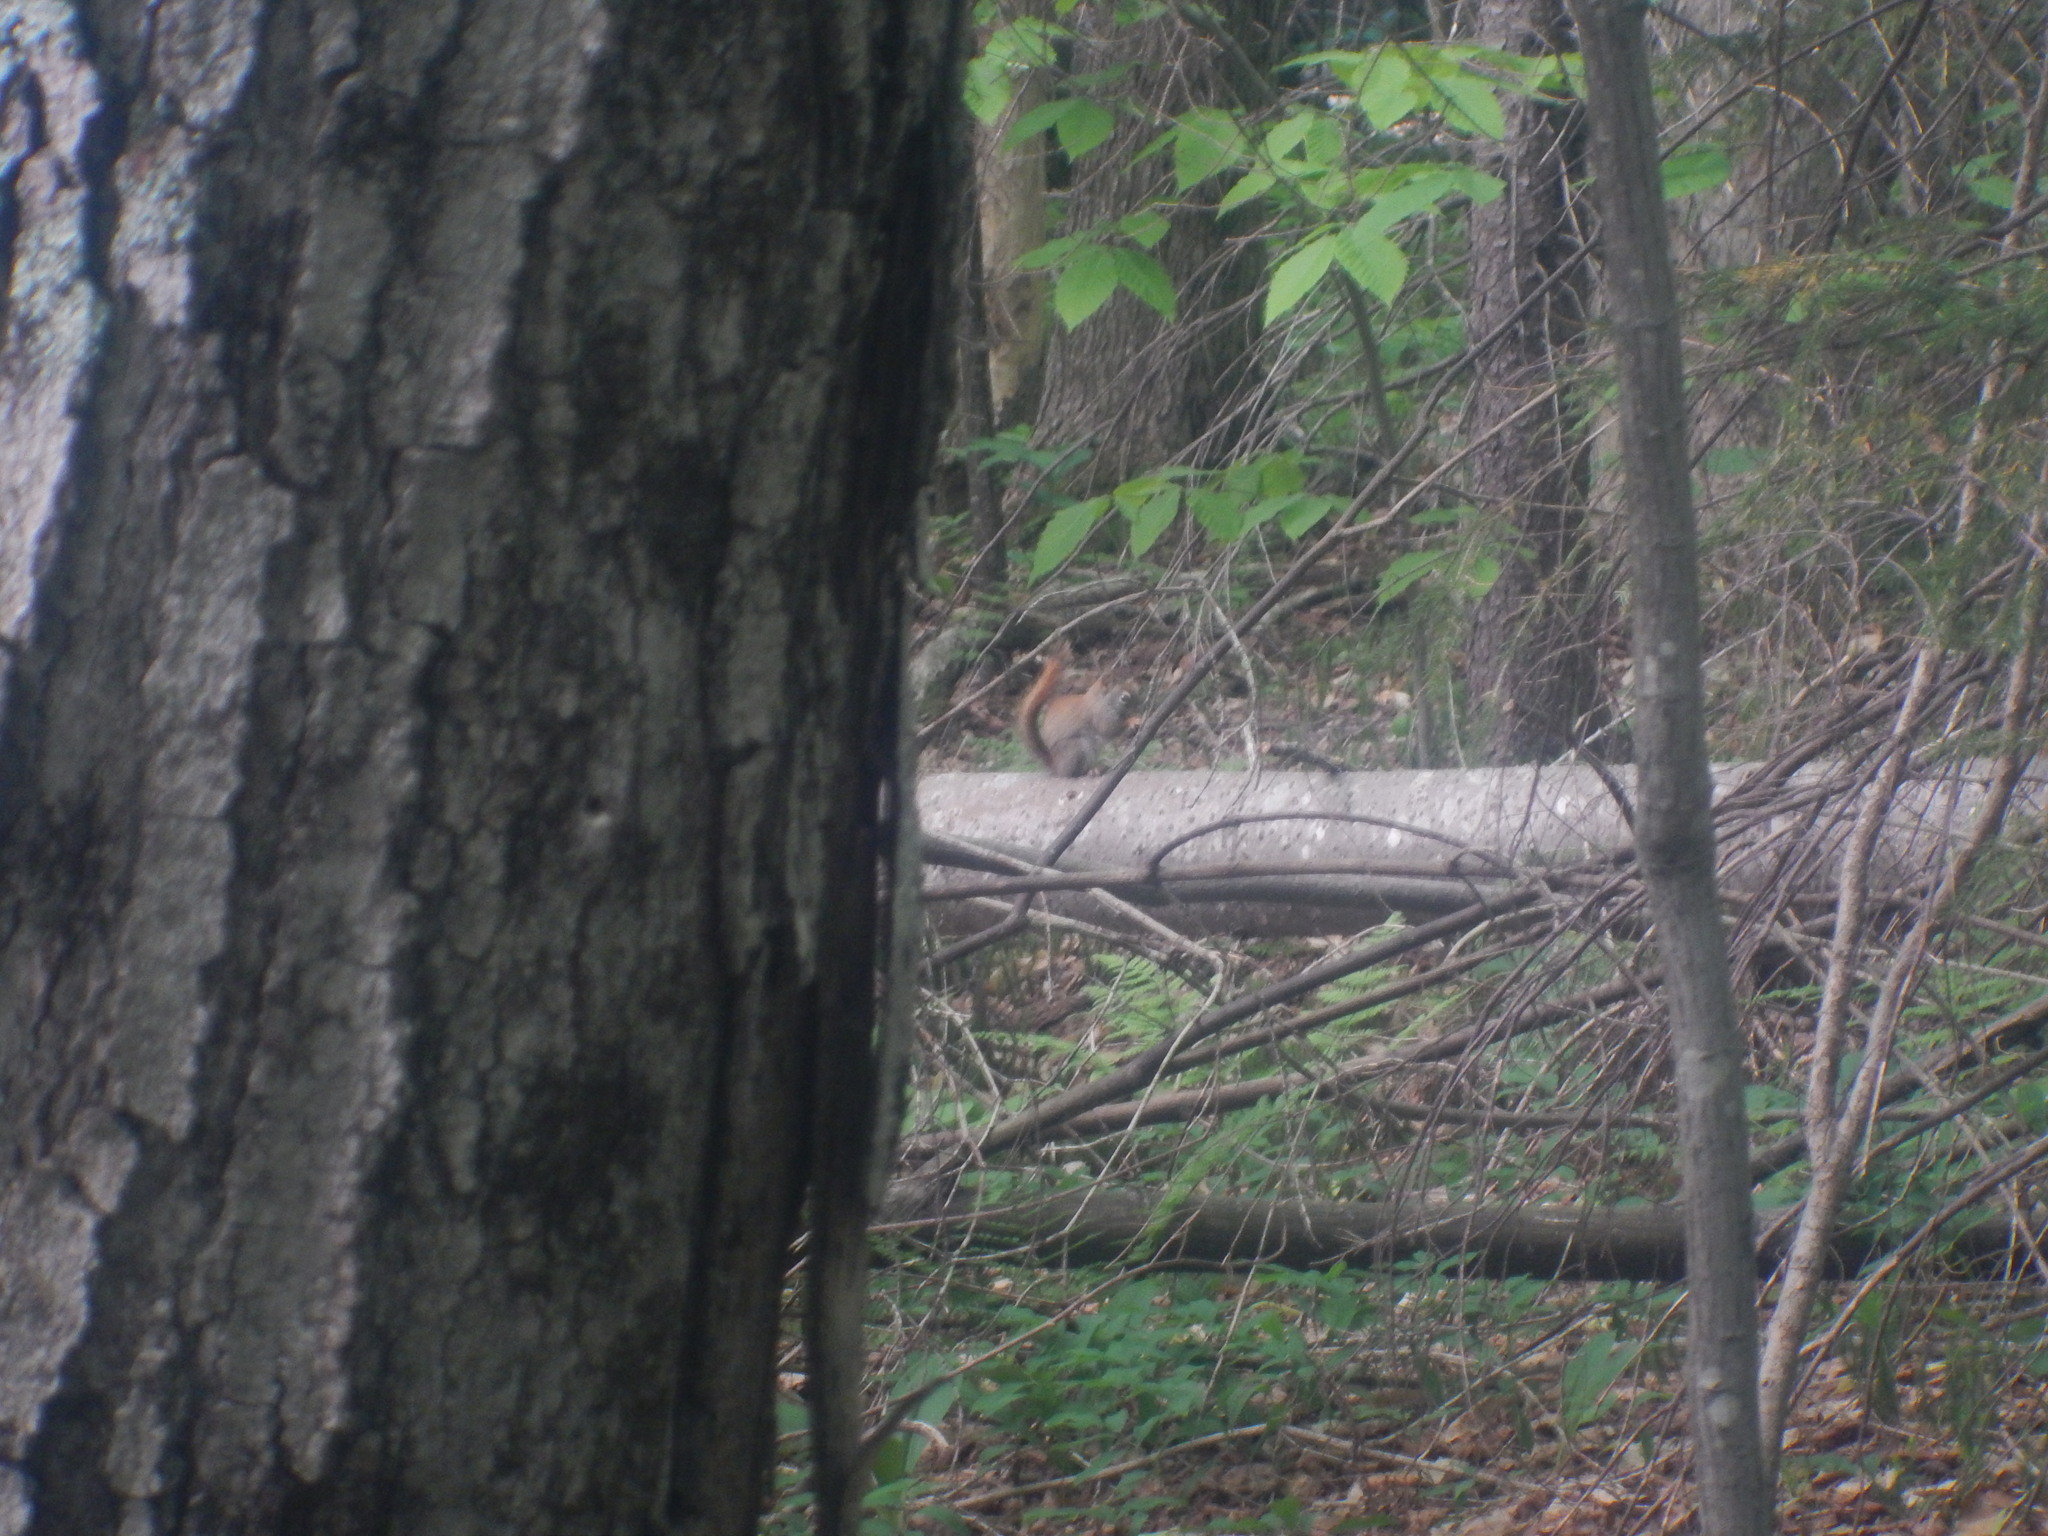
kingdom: Animalia
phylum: Chordata
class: Mammalia
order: Rodentia
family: Sciuridae
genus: Tamiasciurus
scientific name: Tamiasciurus hudsonicus
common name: Red squirrel
